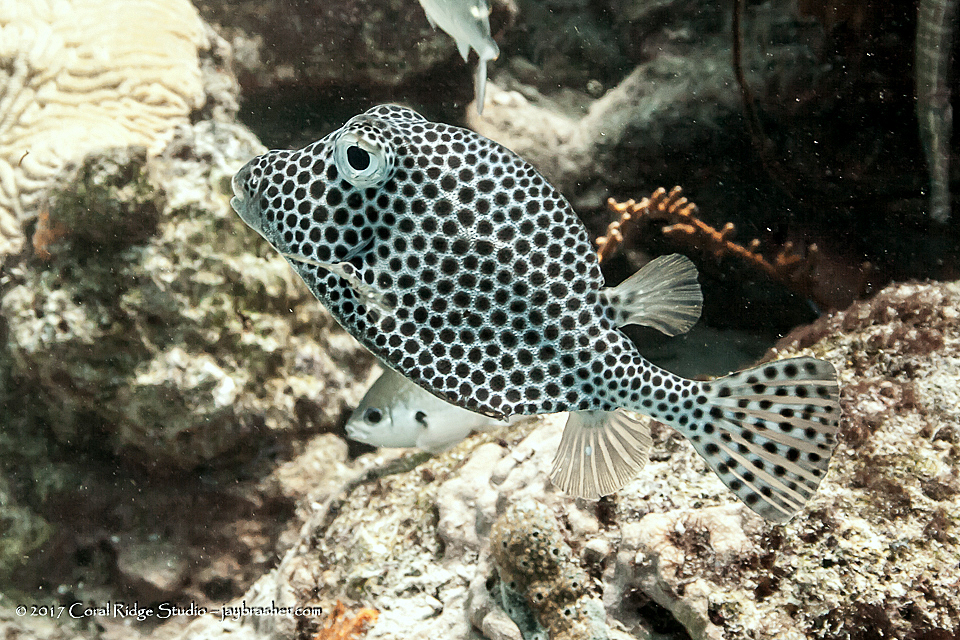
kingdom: Animalia
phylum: Chordata
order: Tetraodontiformes
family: Ostraciidae
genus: Lactophrys
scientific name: Lactophrys bicaudalis
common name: Spotted trunkfish
